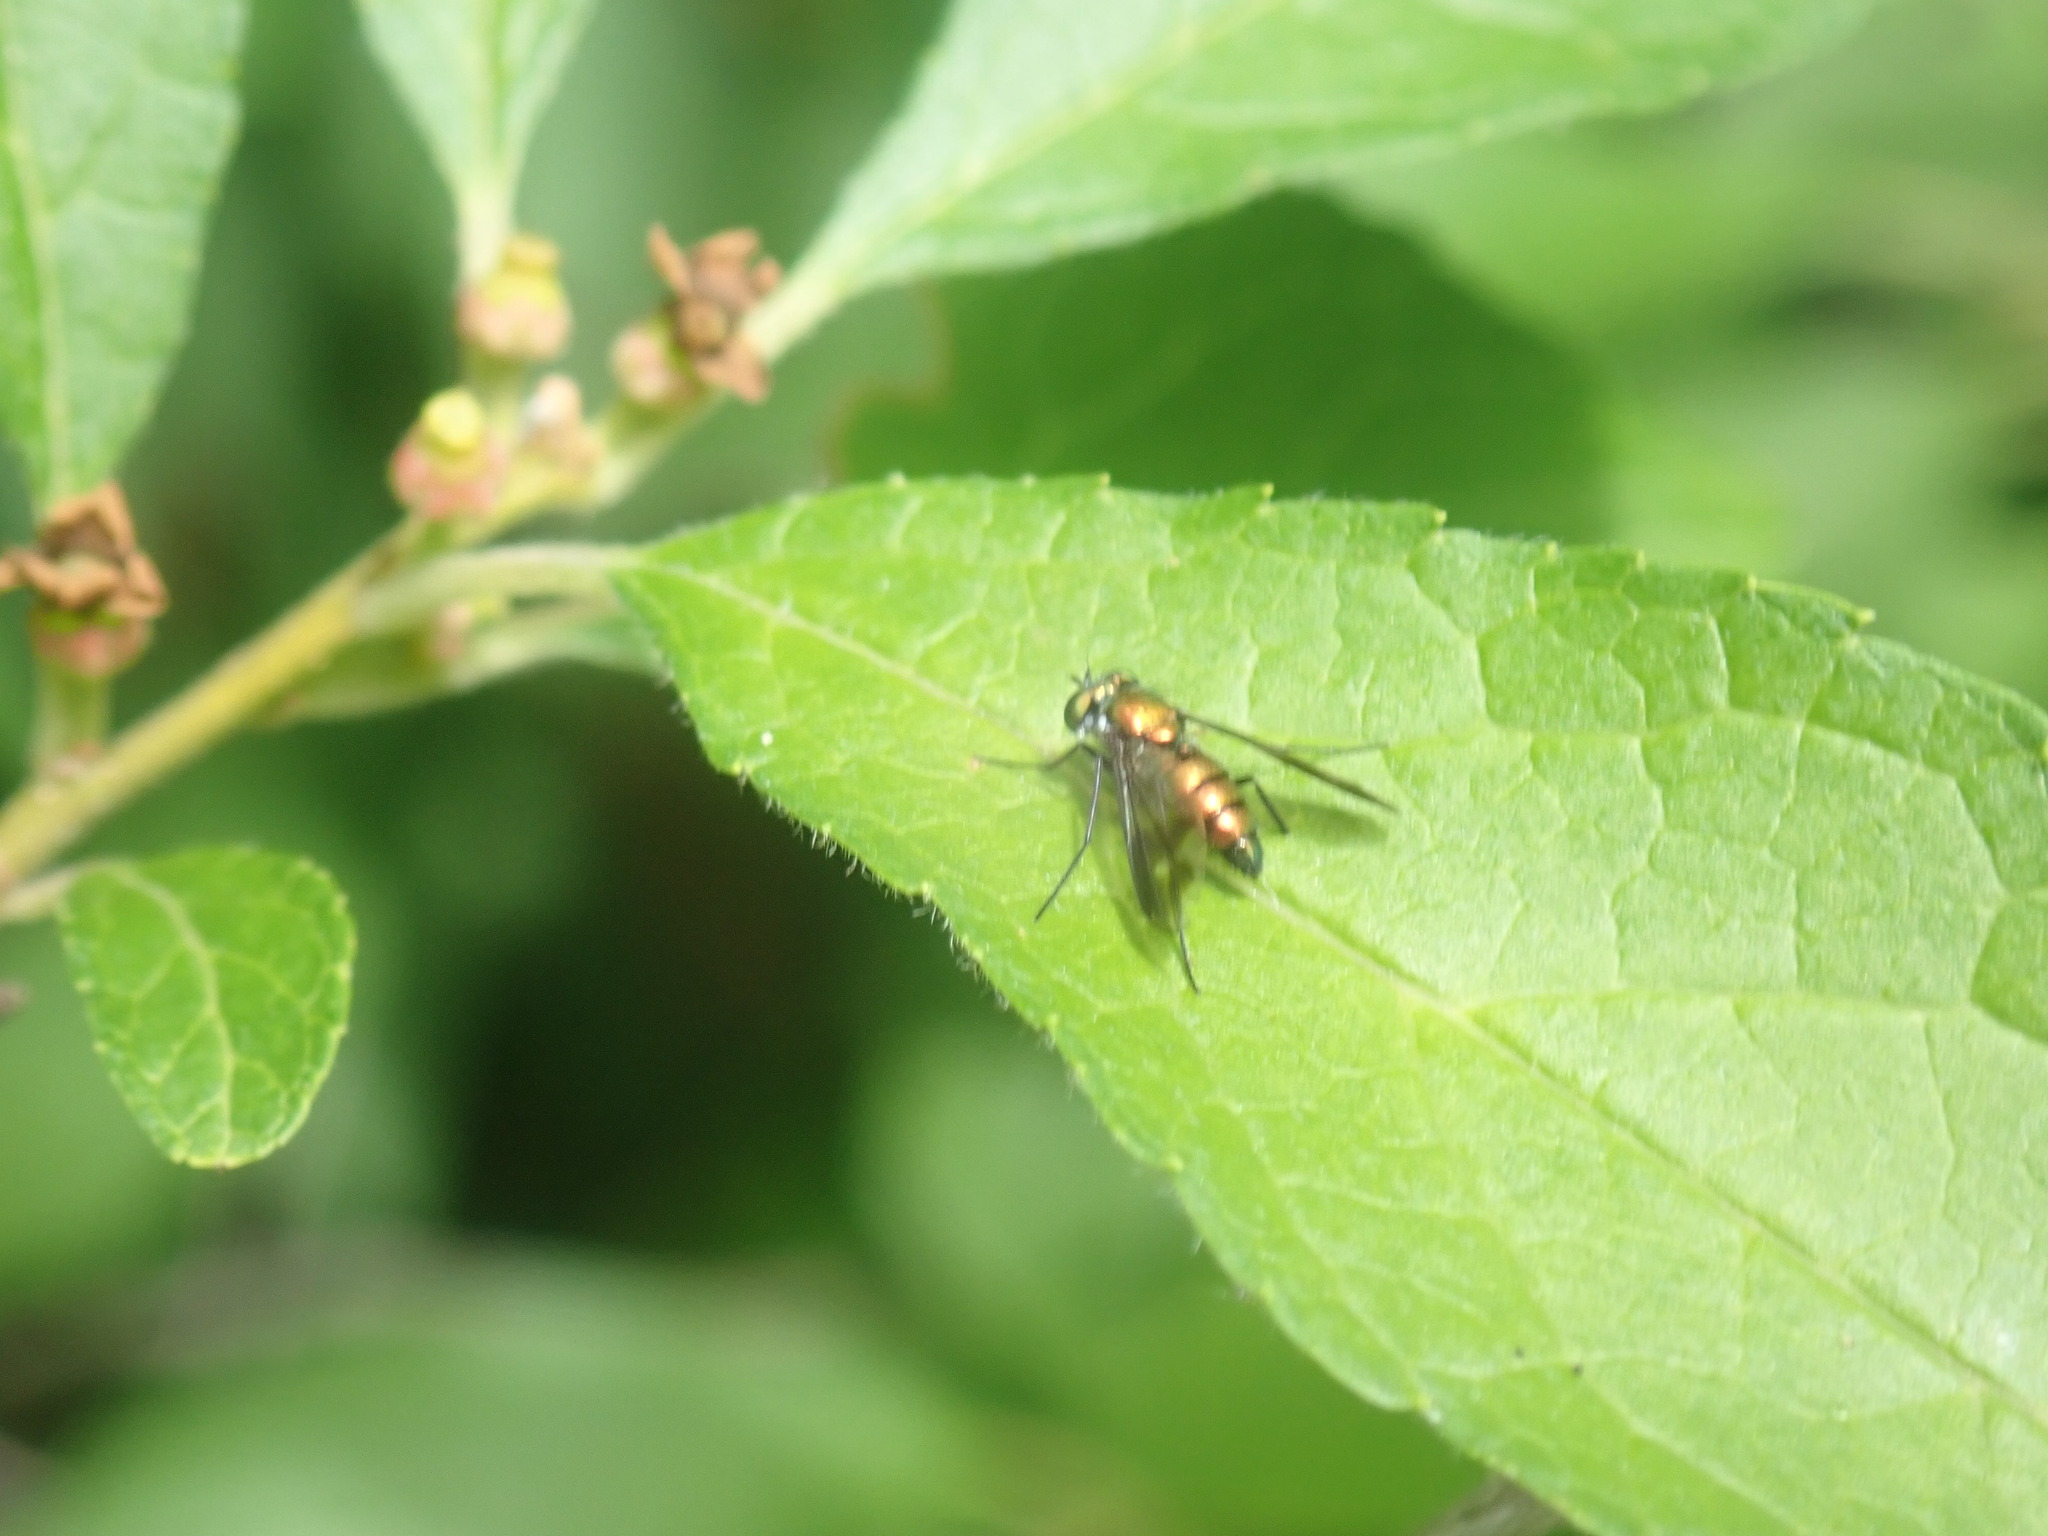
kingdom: Animalia
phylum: Arthropoda
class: Insecta
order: Diptera
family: Dolichopodidae
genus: Condylostylus
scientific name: Condylostylus patibulatus
